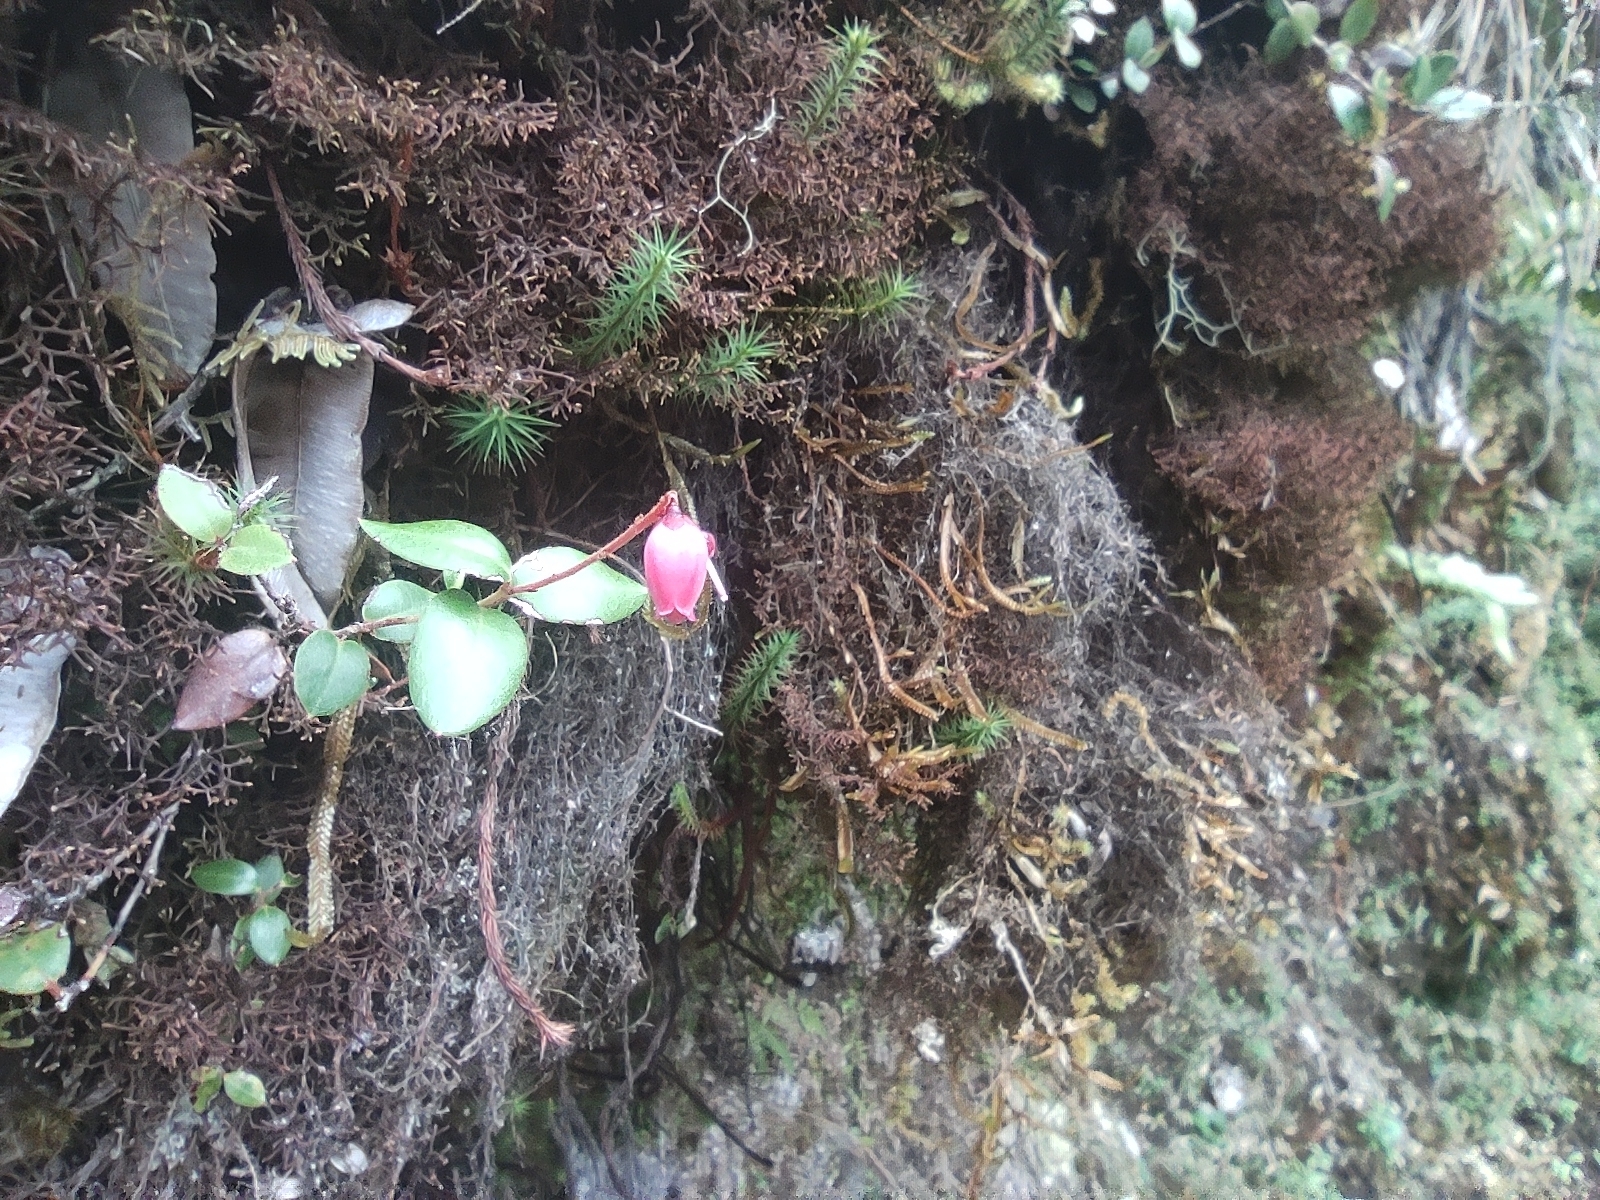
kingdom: Plantae
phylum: Tracheophyta
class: Magnoliopsida
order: Ericales
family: Ericaceae
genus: Agarista
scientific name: Agarista buxifolia
